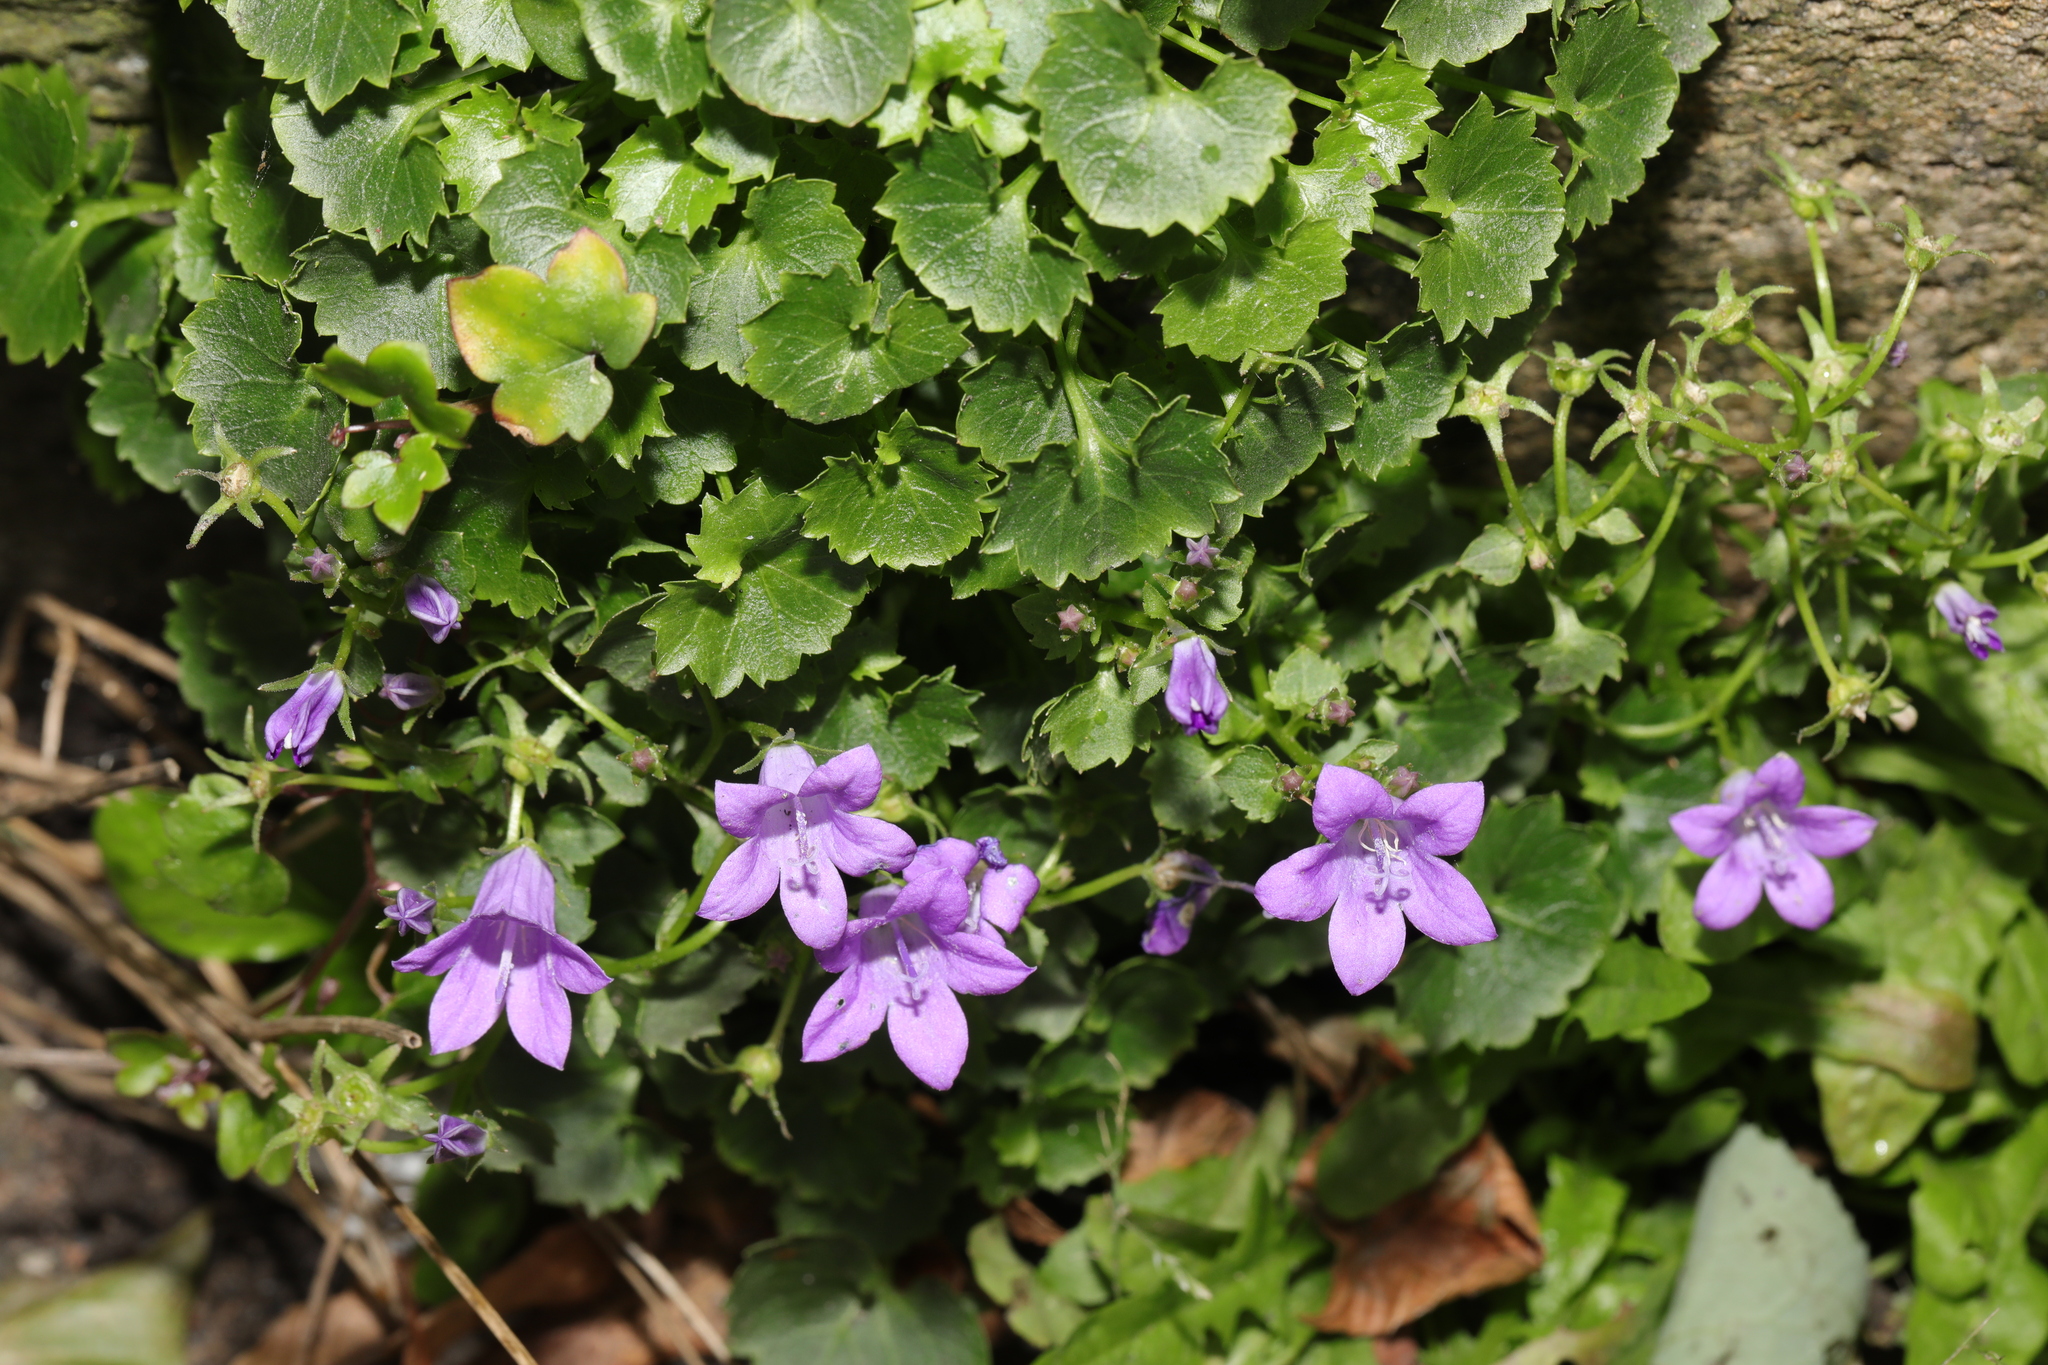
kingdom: Plantae
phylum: Tracheophyta
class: Magnoliopsida
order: Asterales
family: Campanulaceae
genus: Campanula
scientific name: Campanula portenschlagiana
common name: Adria bellflower
